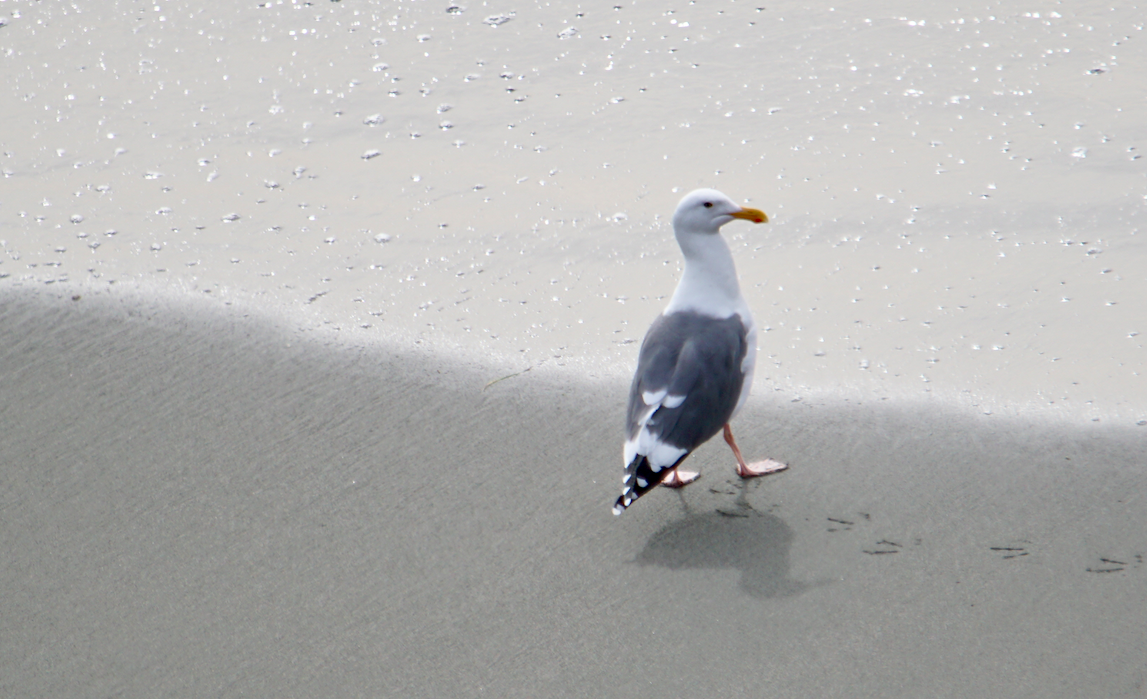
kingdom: Animalia
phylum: Chordata
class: Aves
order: Charadriiformes
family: Laridae
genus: Larus
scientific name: Larus occidentalis
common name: Western gull
